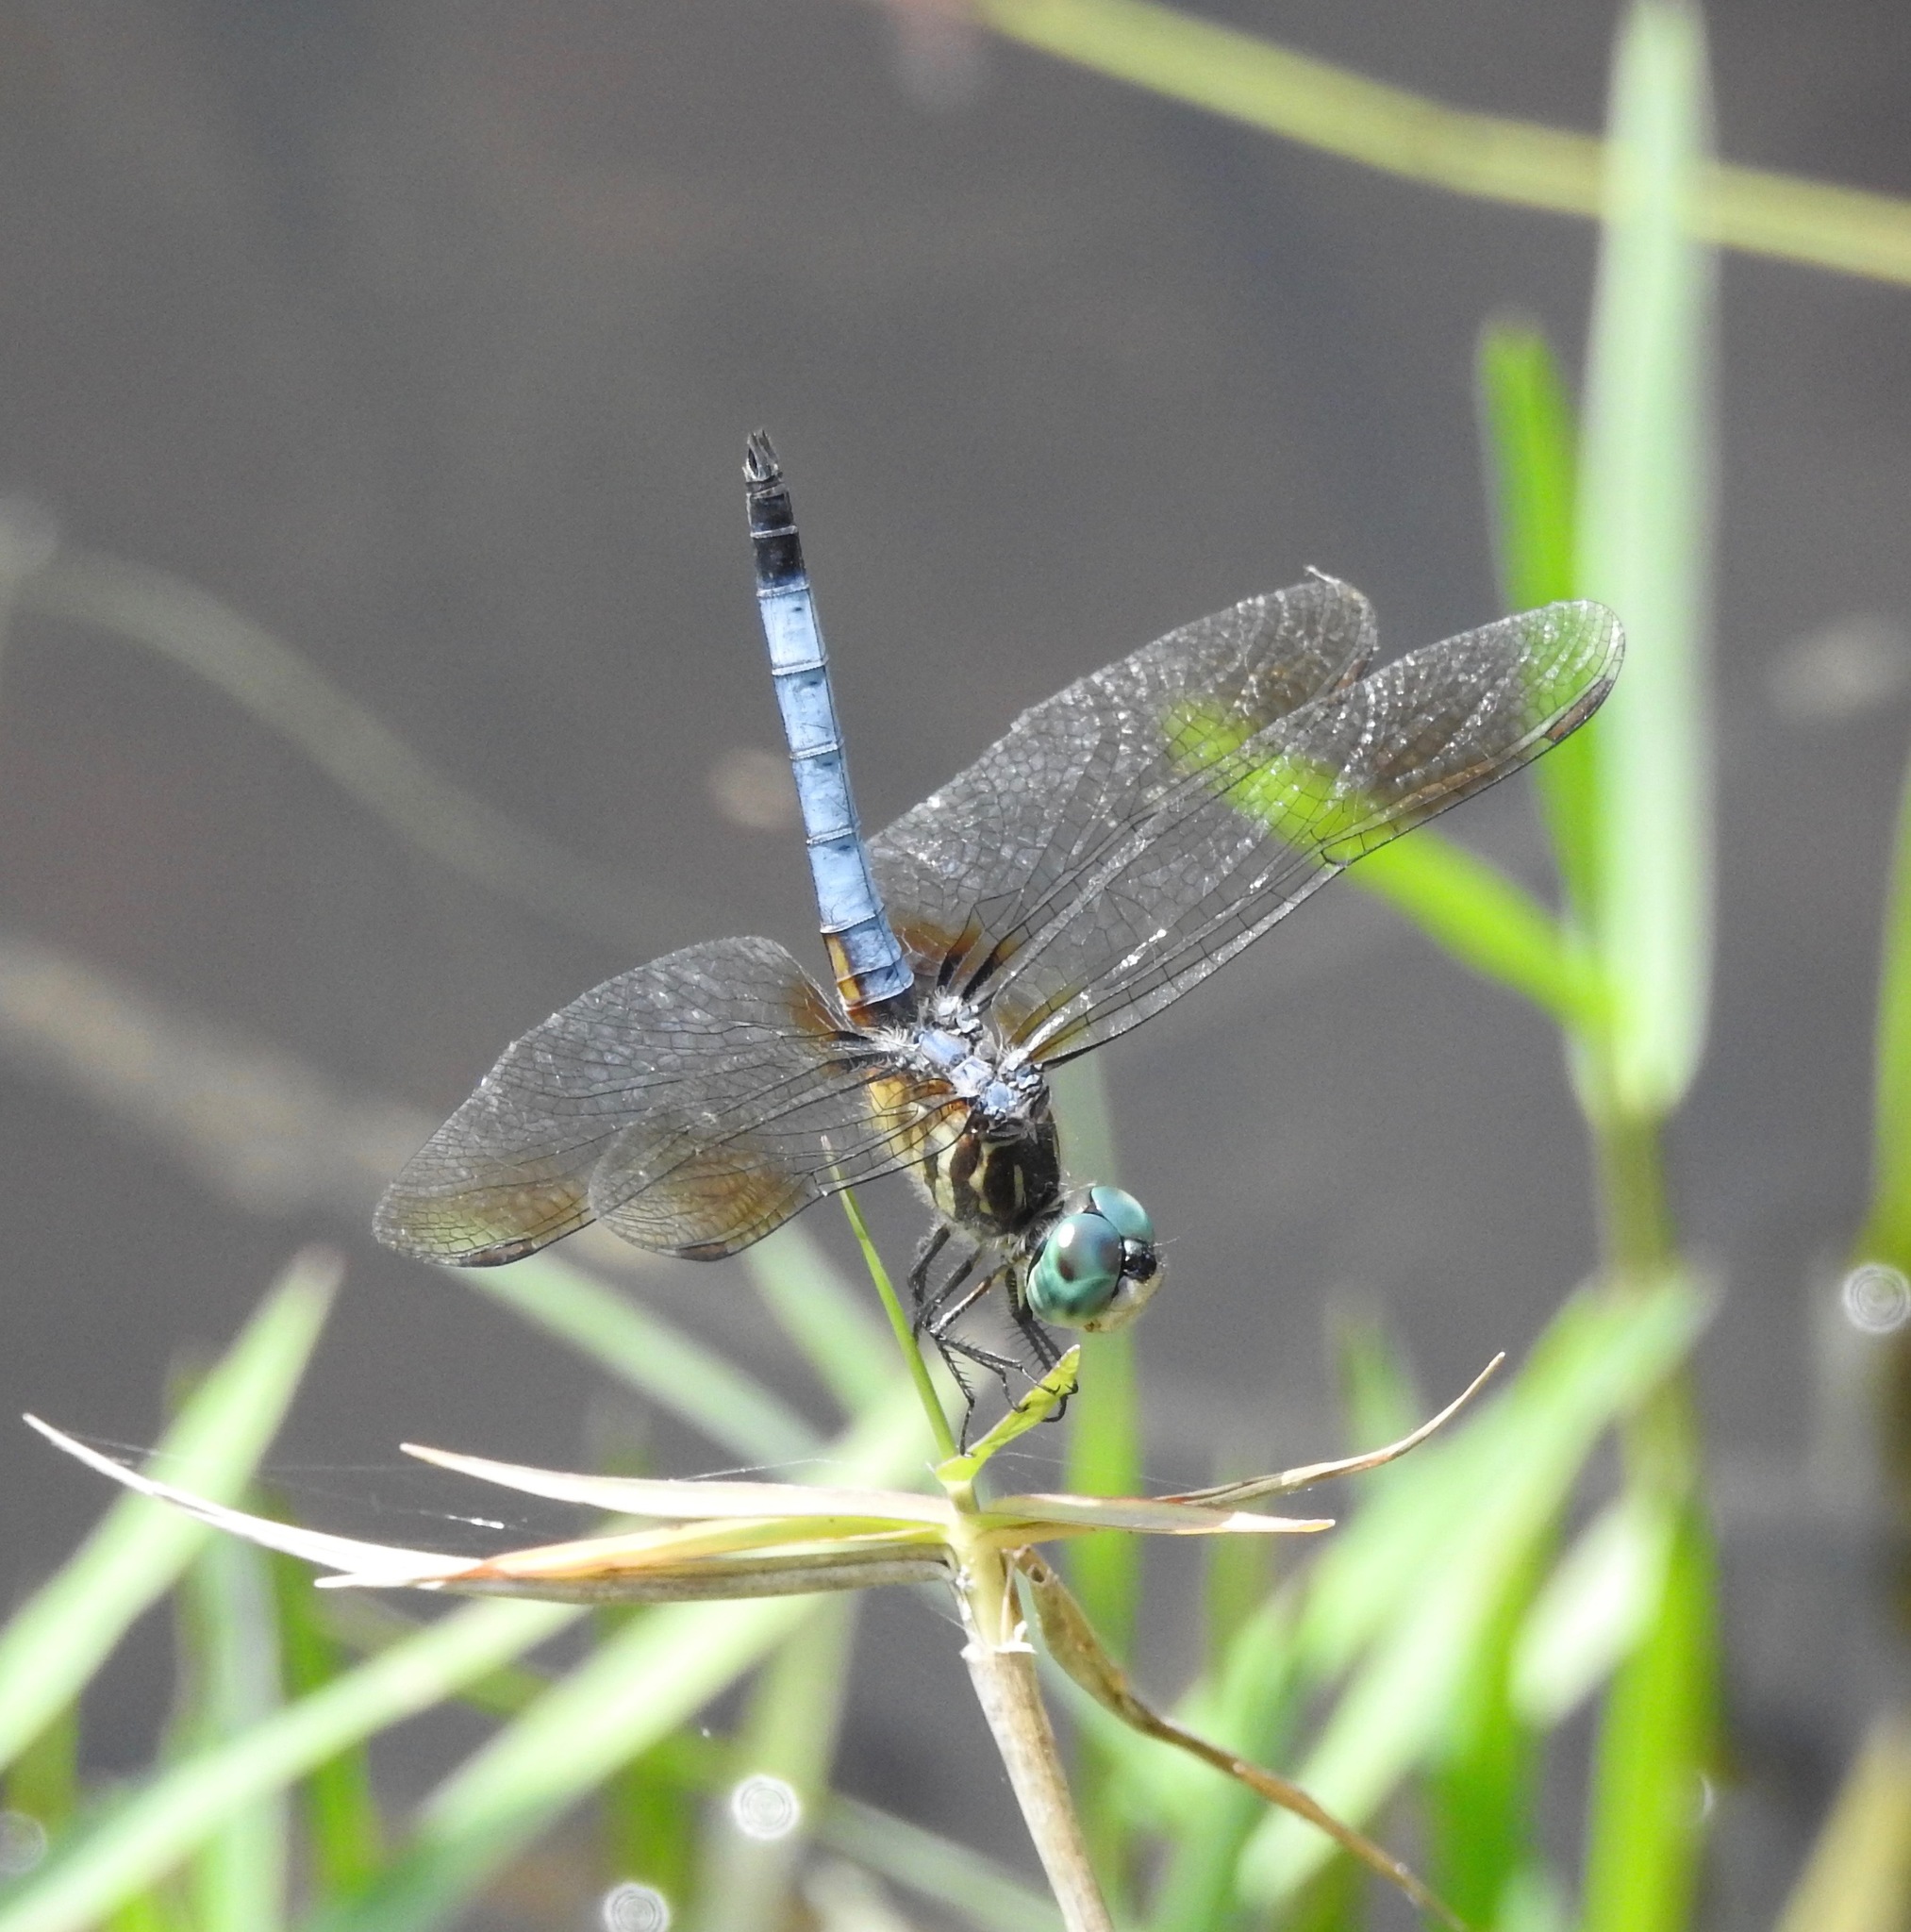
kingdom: Animalia
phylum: Arthropoda
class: Insecta
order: Odonata
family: Libellulidae
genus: Pachydiplax
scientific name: Pachydiplax longipennis
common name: Blue dasher
